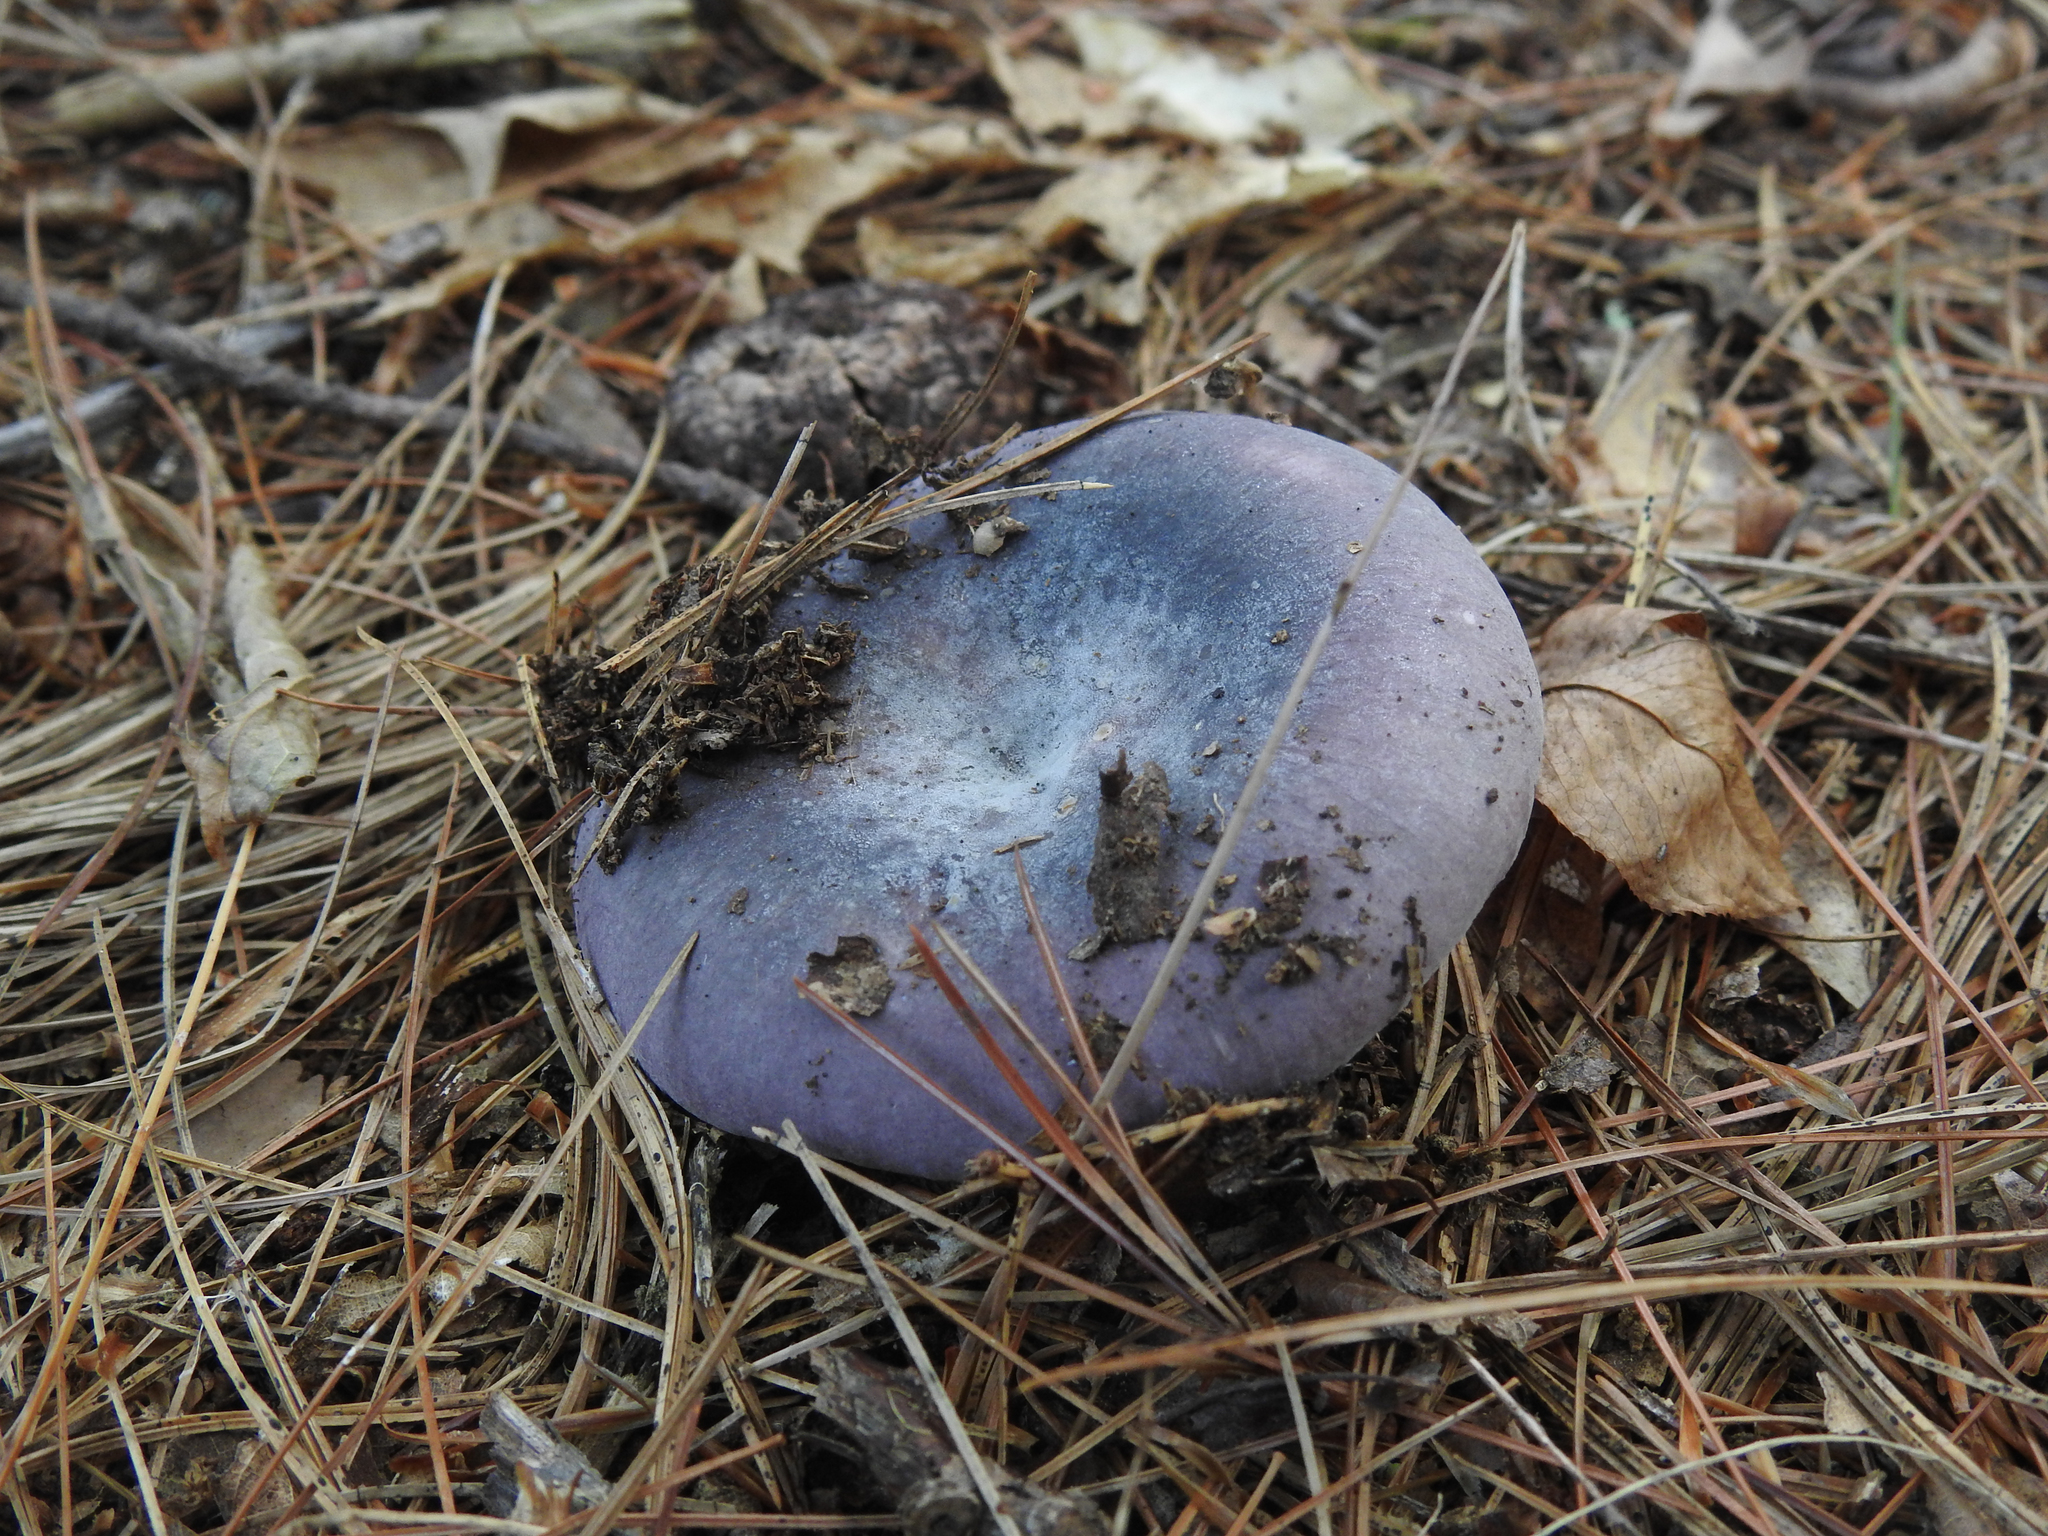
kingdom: Fungi
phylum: Basidiomycota
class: Agaricomycetes
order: Agaricales
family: Cortinariaceae
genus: Cortinarius
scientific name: Cortinarius iodes
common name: Viscid violet cort
